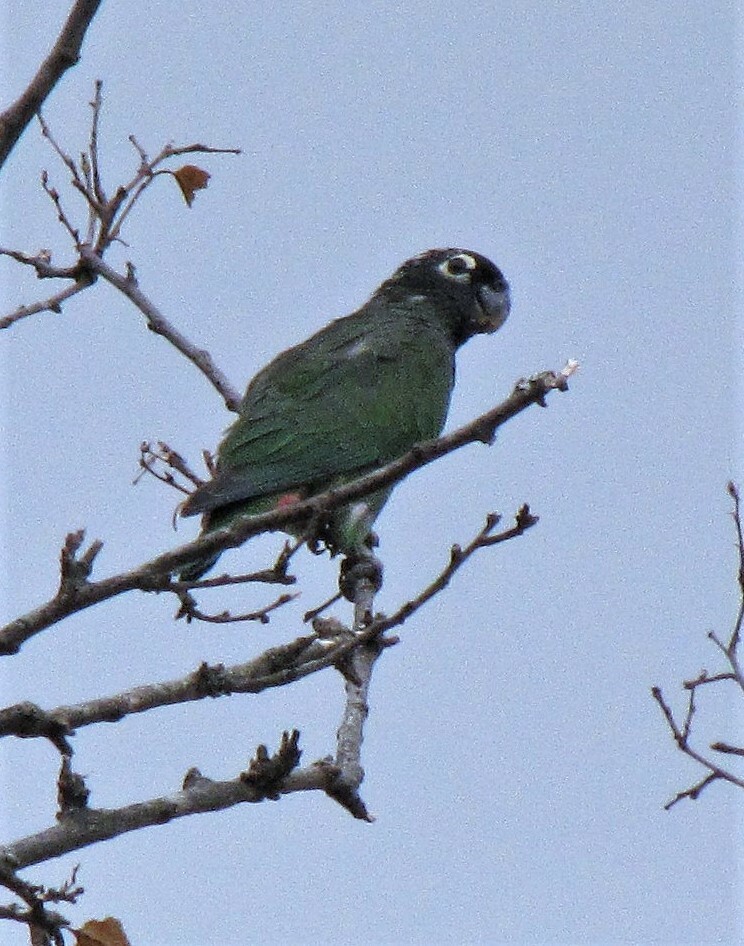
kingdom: Animalia
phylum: Chordata
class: Aves
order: Psittaciformes
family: Psittacidae
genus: Pionus
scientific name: Pionus maximiliani
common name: Scaly-headed parrot
